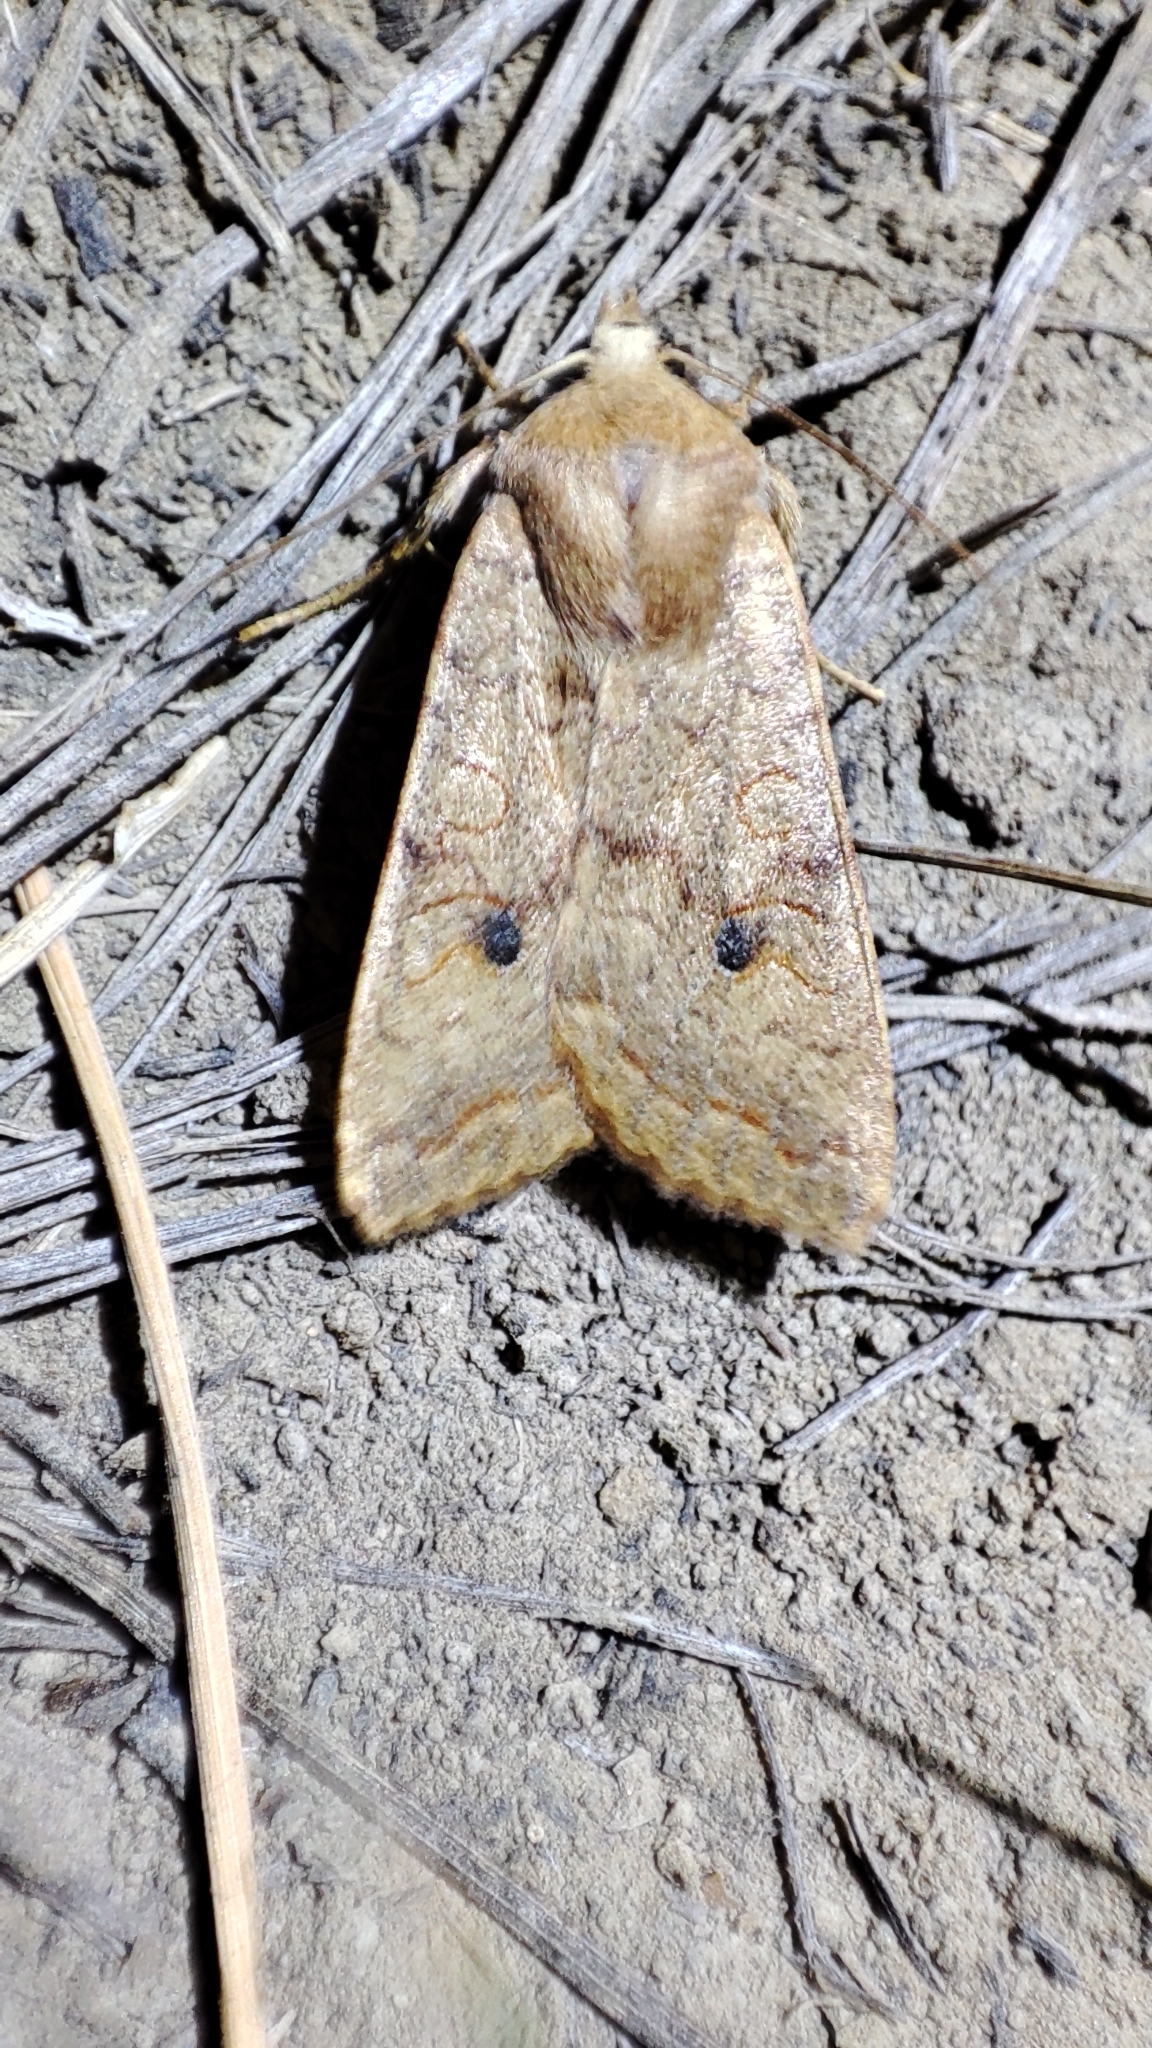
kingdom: Animalia
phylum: Arthropoda
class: Insecta
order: Lepidoptera
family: Noctuidae
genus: Sunira
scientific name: Sunira circellaris
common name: Brick
